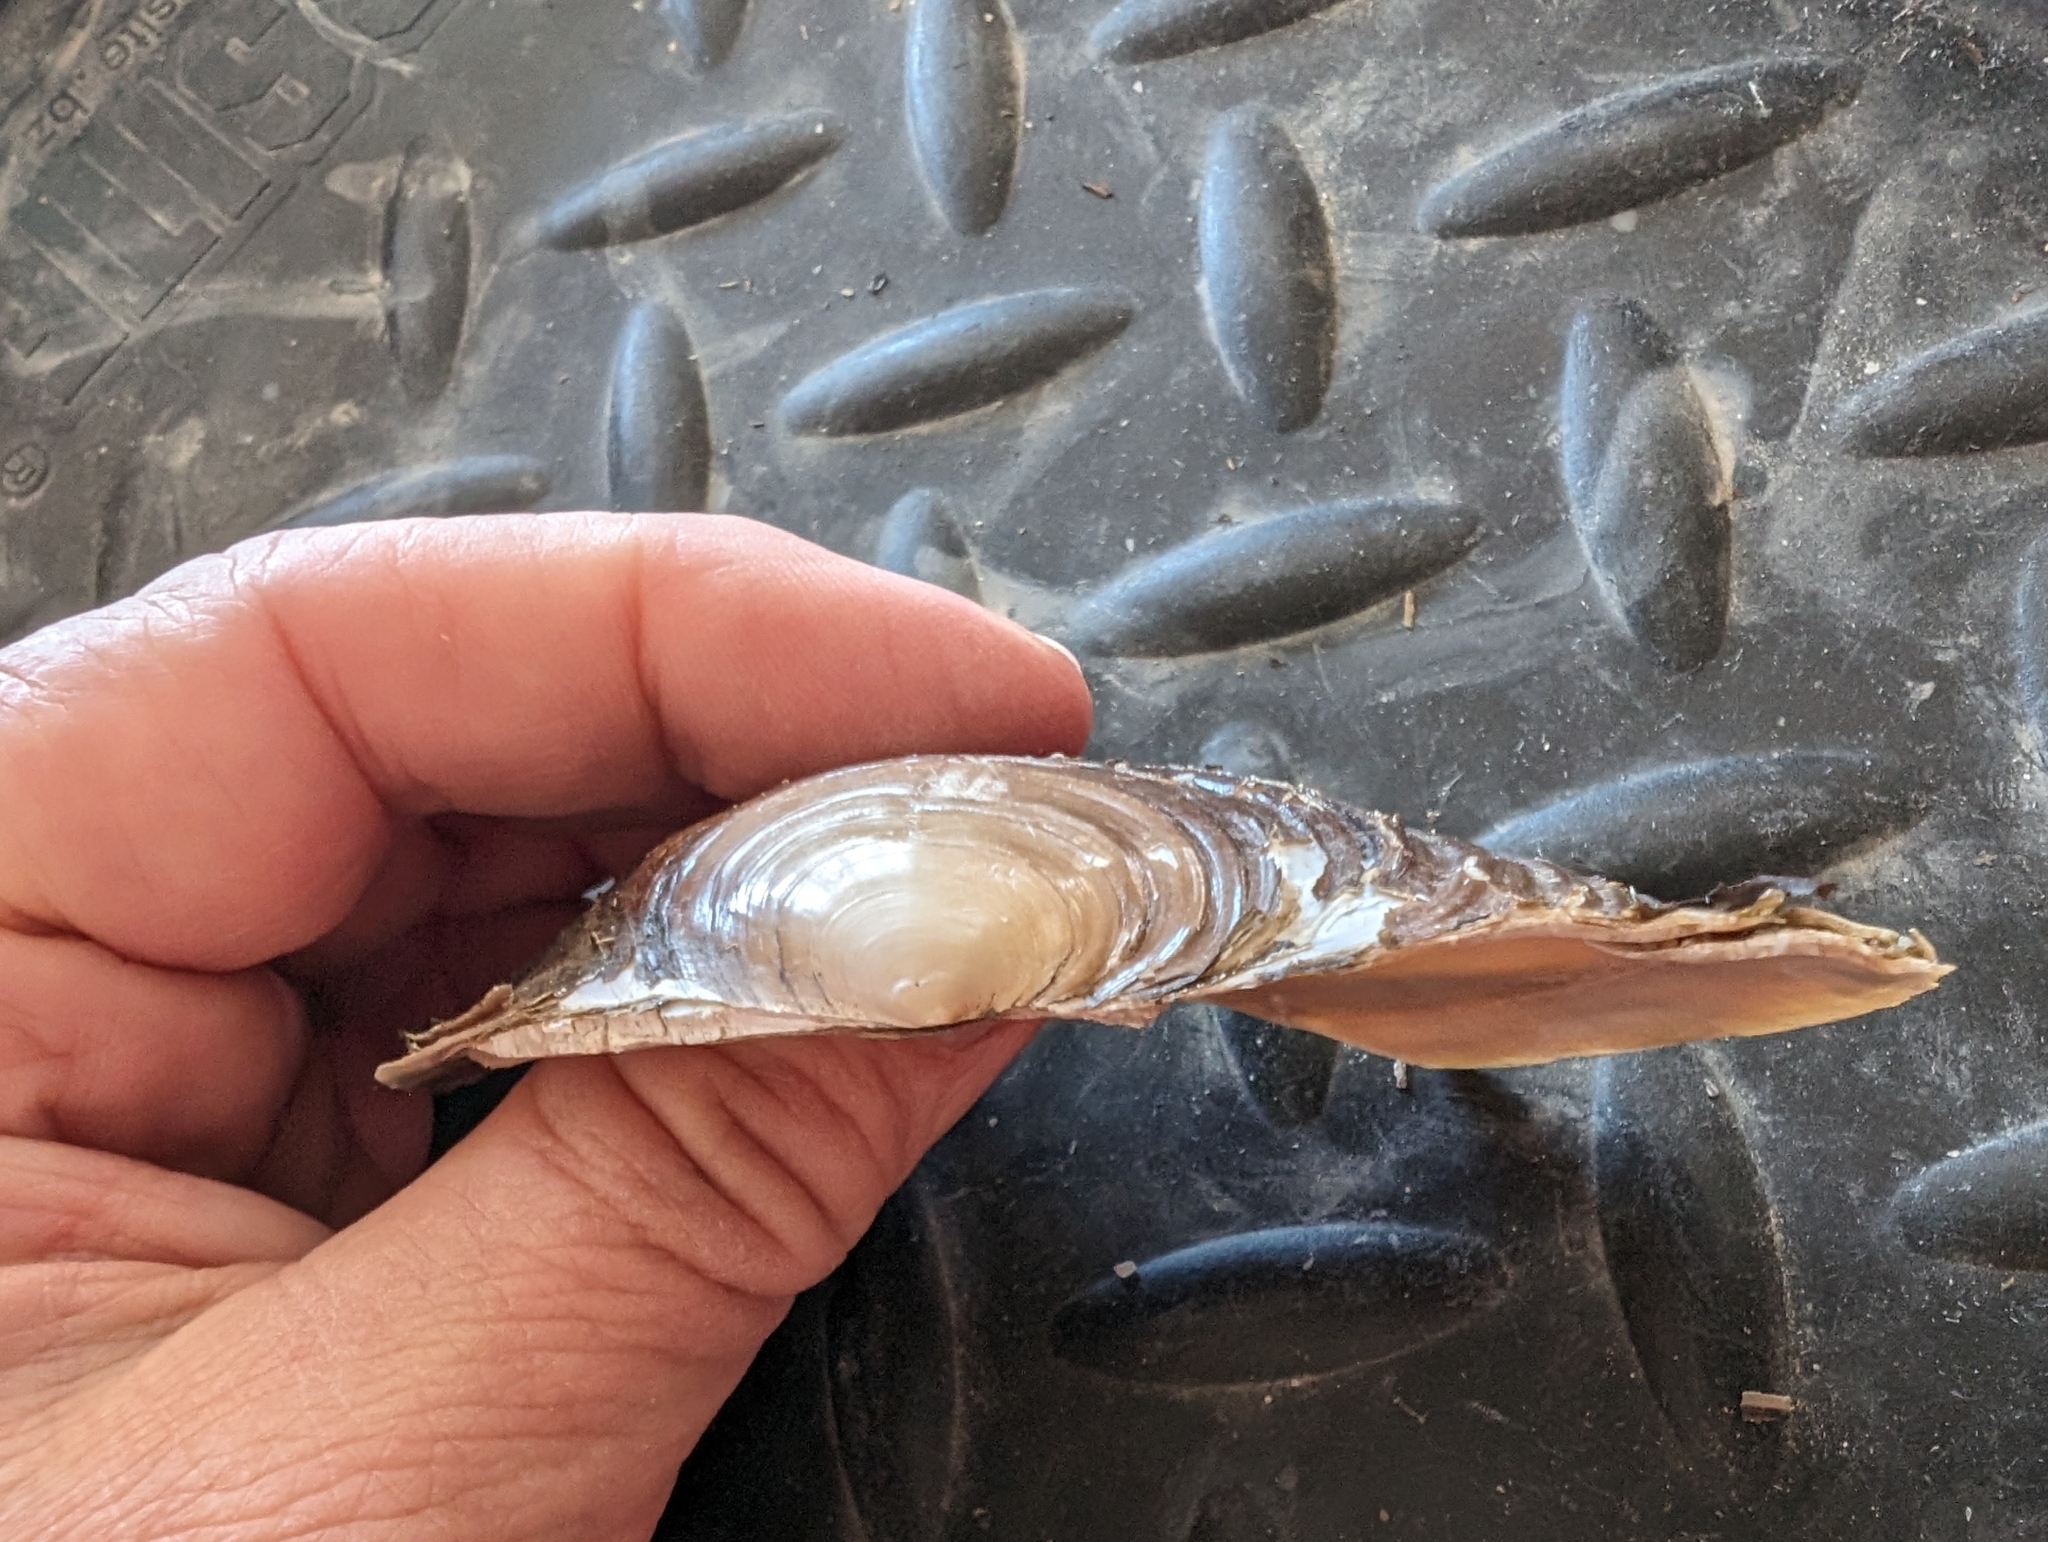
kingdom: Animalia
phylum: Mollusca
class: Bivalvia
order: Unionida
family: Unionidae
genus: Potamilus
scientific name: Potamilus ohiensis
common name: Pink papershell
